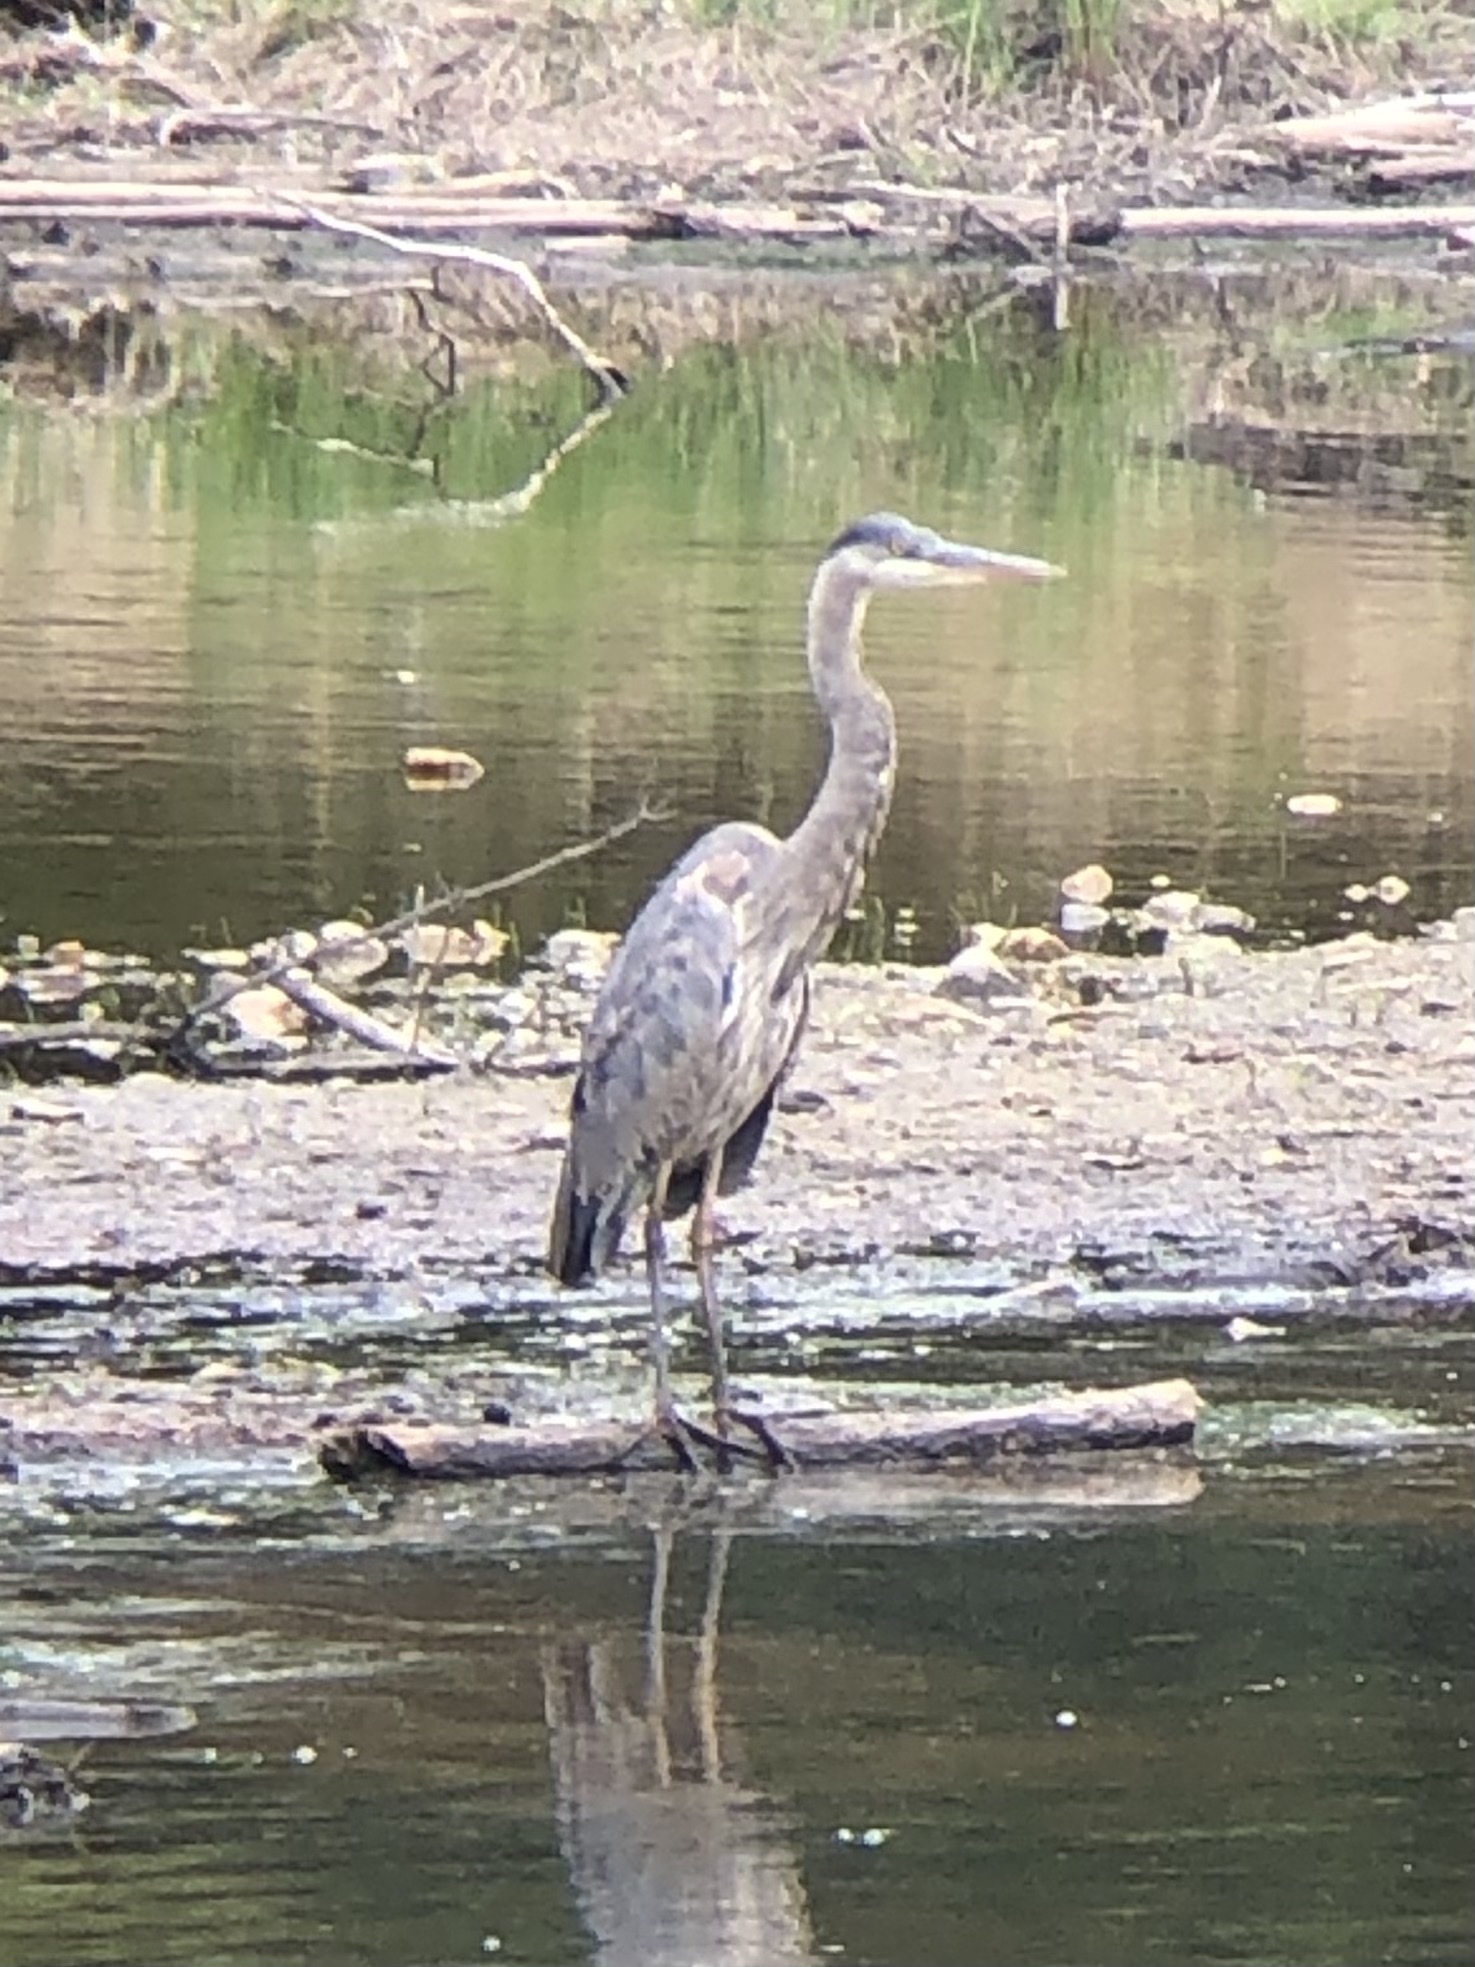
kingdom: Animalia
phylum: Chordata
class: Aves
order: Pelecaniformes
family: Ardeidae
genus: Ardea
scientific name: Ardea herodias
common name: Great blue heron
